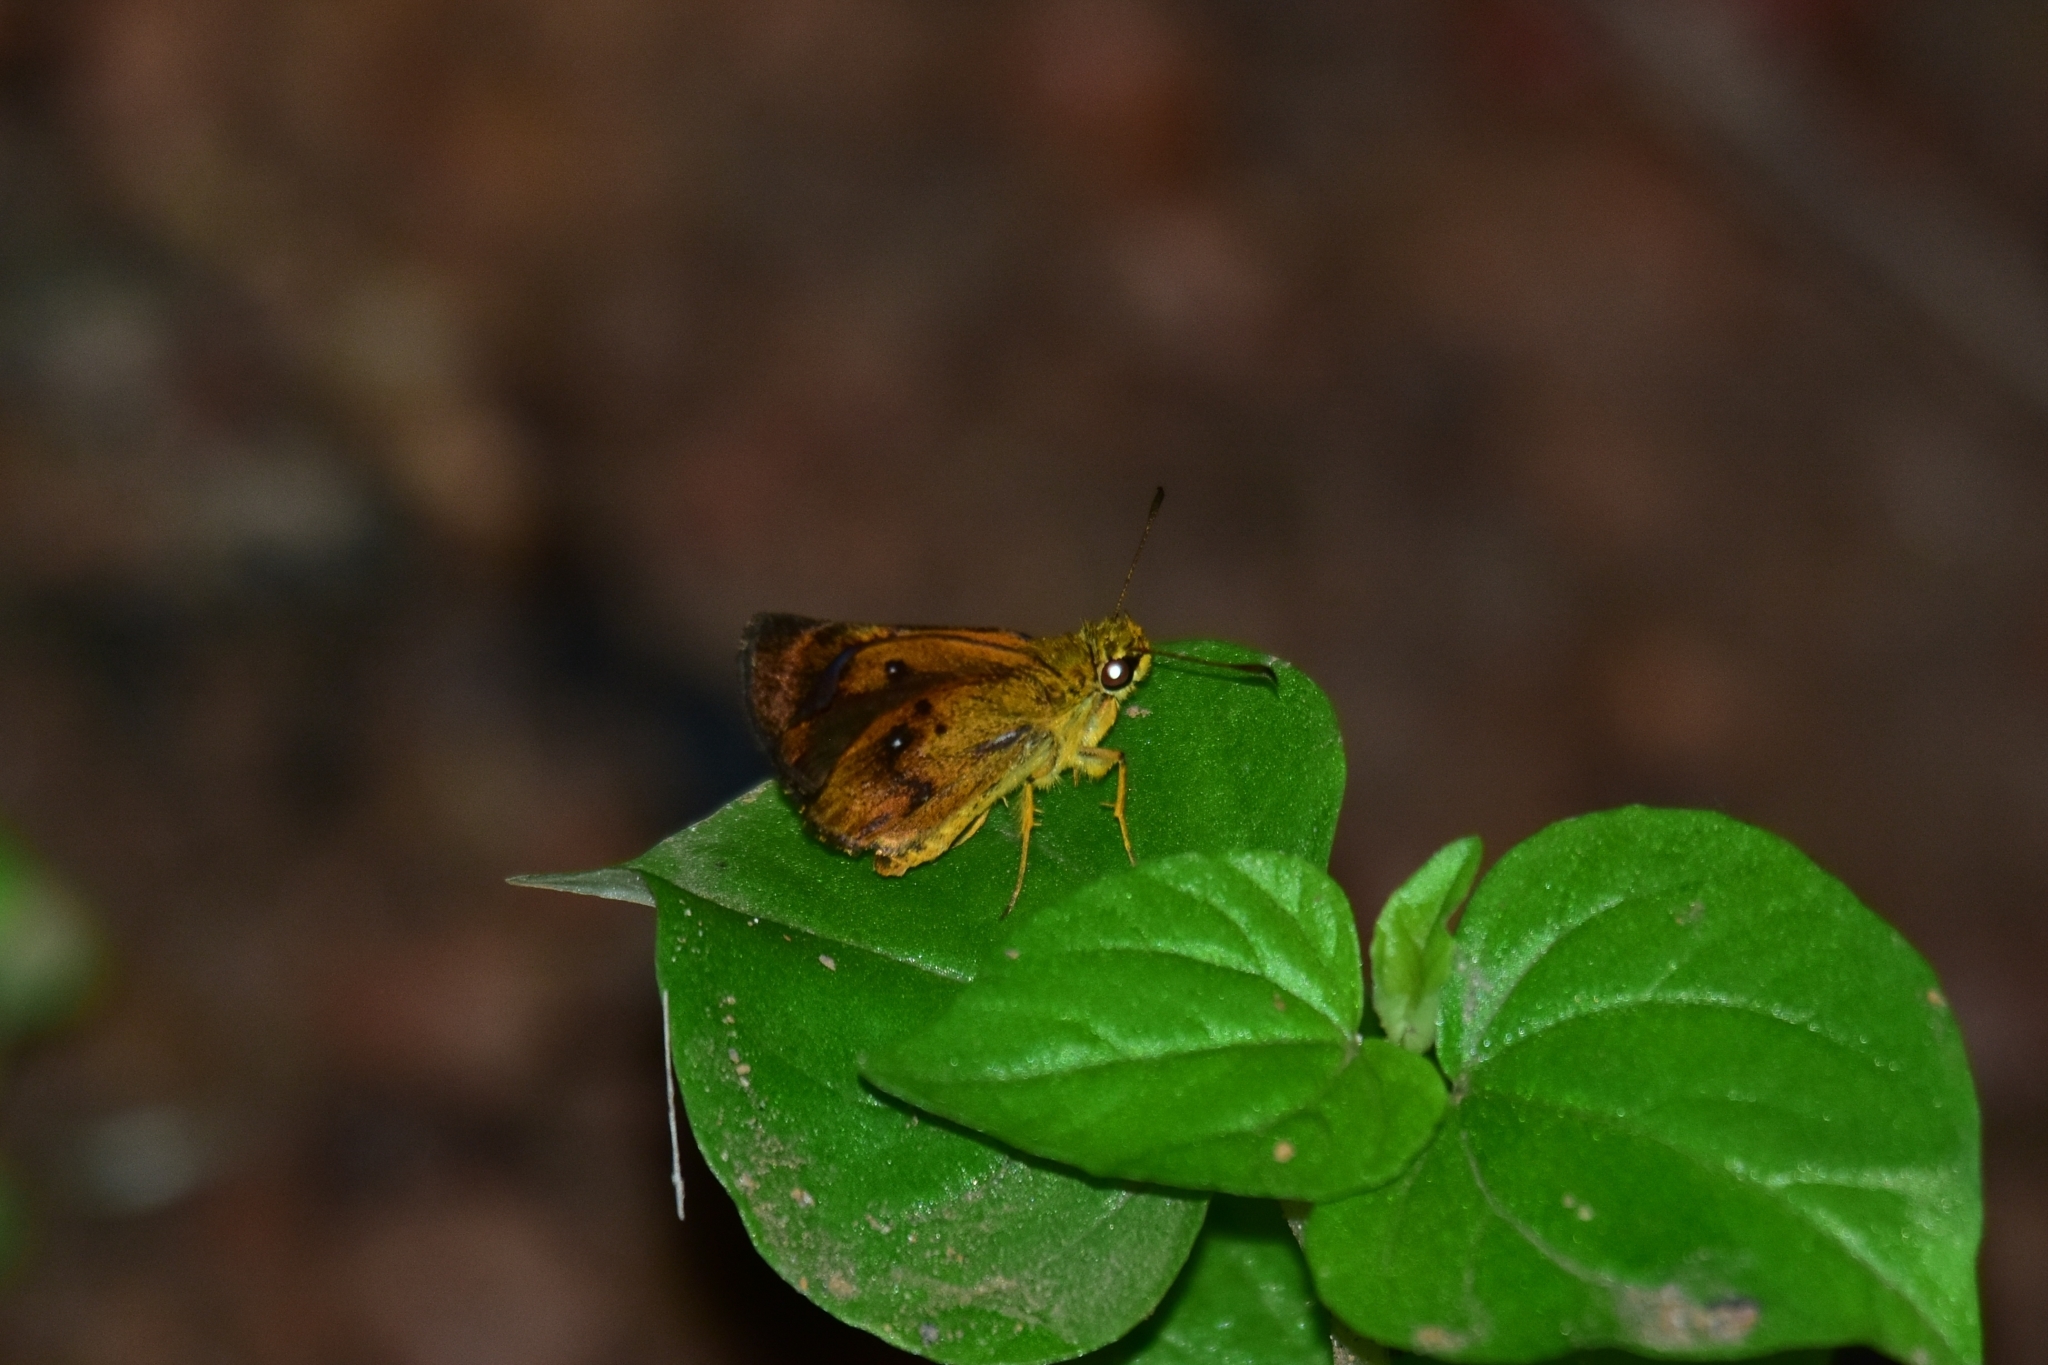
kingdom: Animalia
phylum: Arthropoda
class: Insecta
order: Lepidoptera
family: Hesperiidae
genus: Iambrix
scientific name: Iambrix salsala
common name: Chestnut bob
